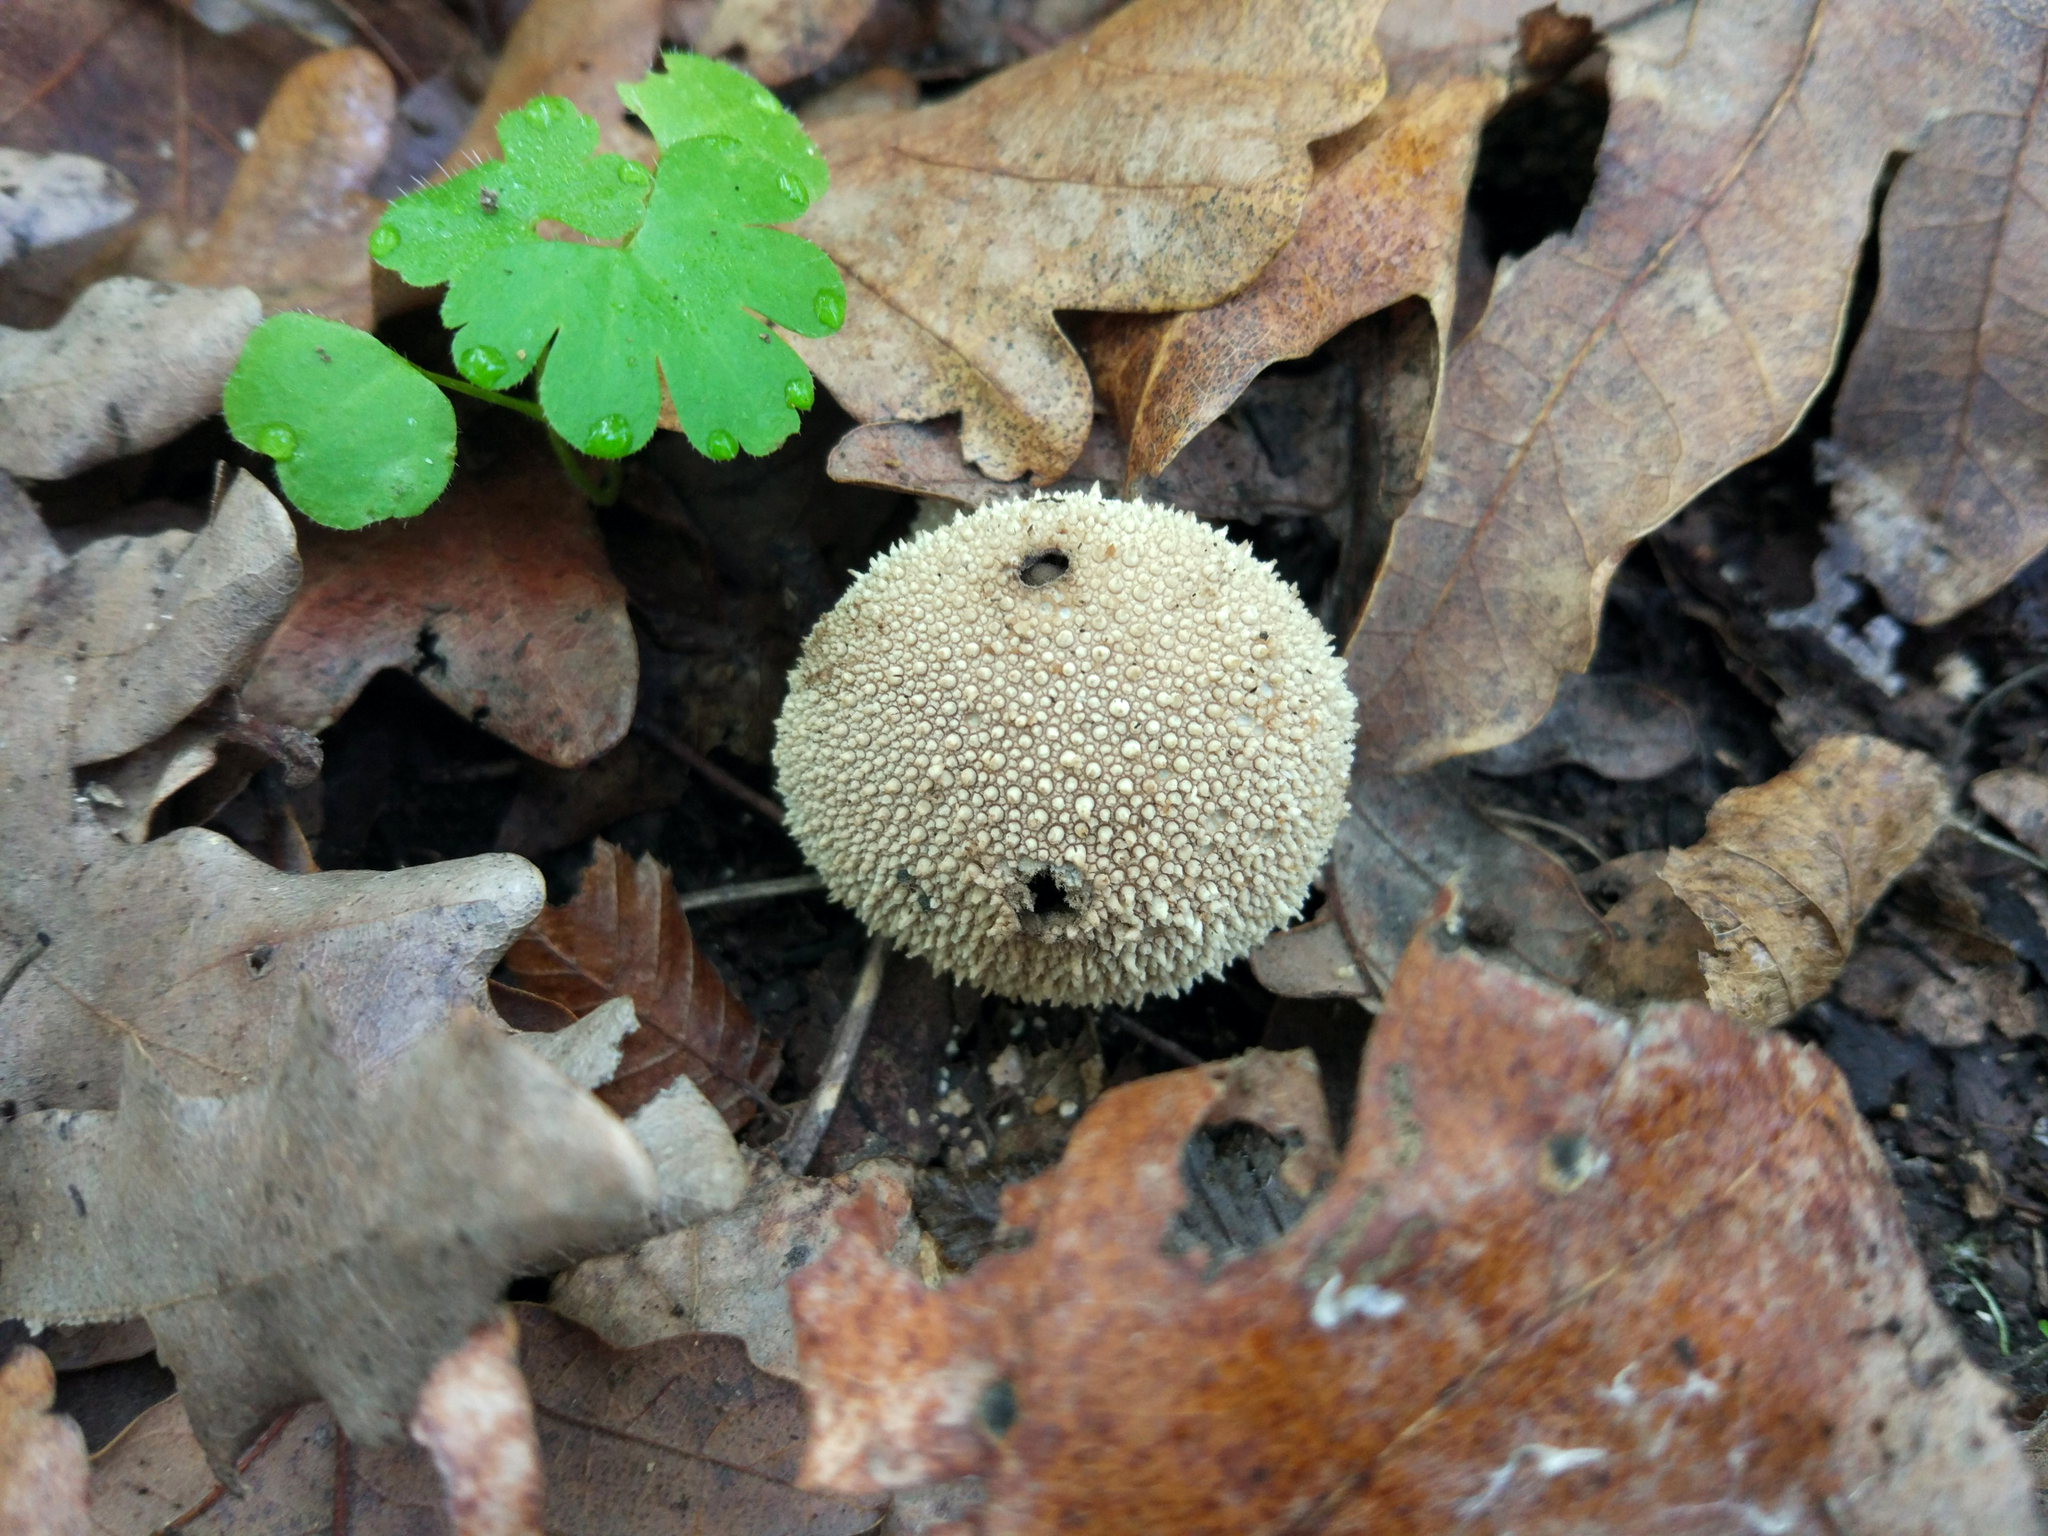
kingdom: Fungi
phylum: Basidiomycota
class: Agaricomycetes
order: Agaricales
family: Lycoperdaceae
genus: Lycoperdon
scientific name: Lycoperdon perlatum
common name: Common puffball
